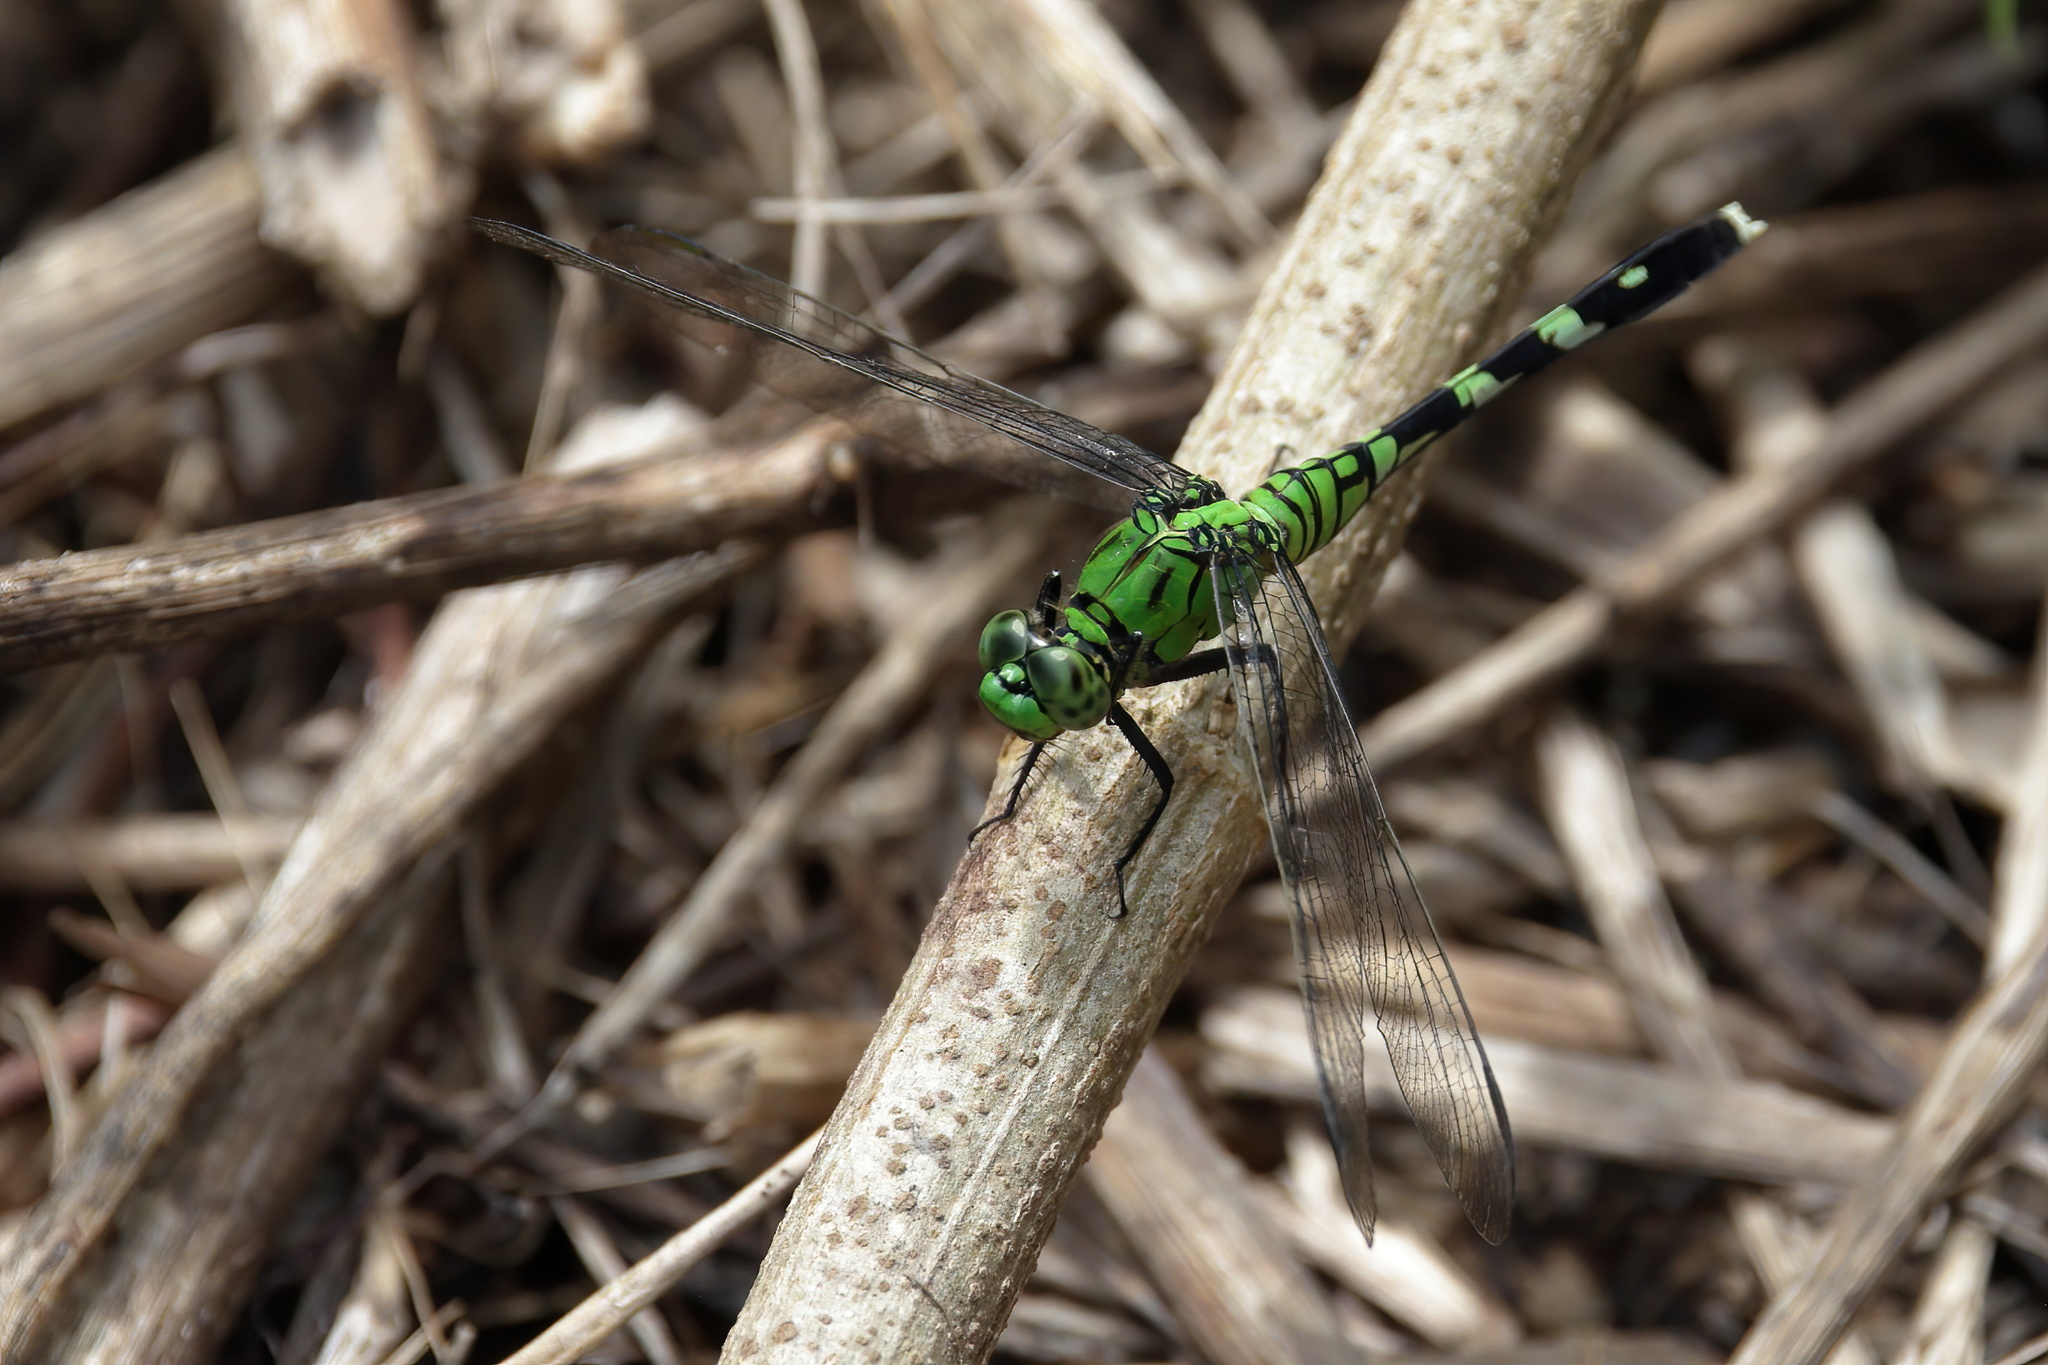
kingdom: Animalia
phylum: Arthropoda
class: Insecta
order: Odonata
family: Libellulidae
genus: Erythemis
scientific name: Erythemis simplicicollis
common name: Eastern pondhawk
